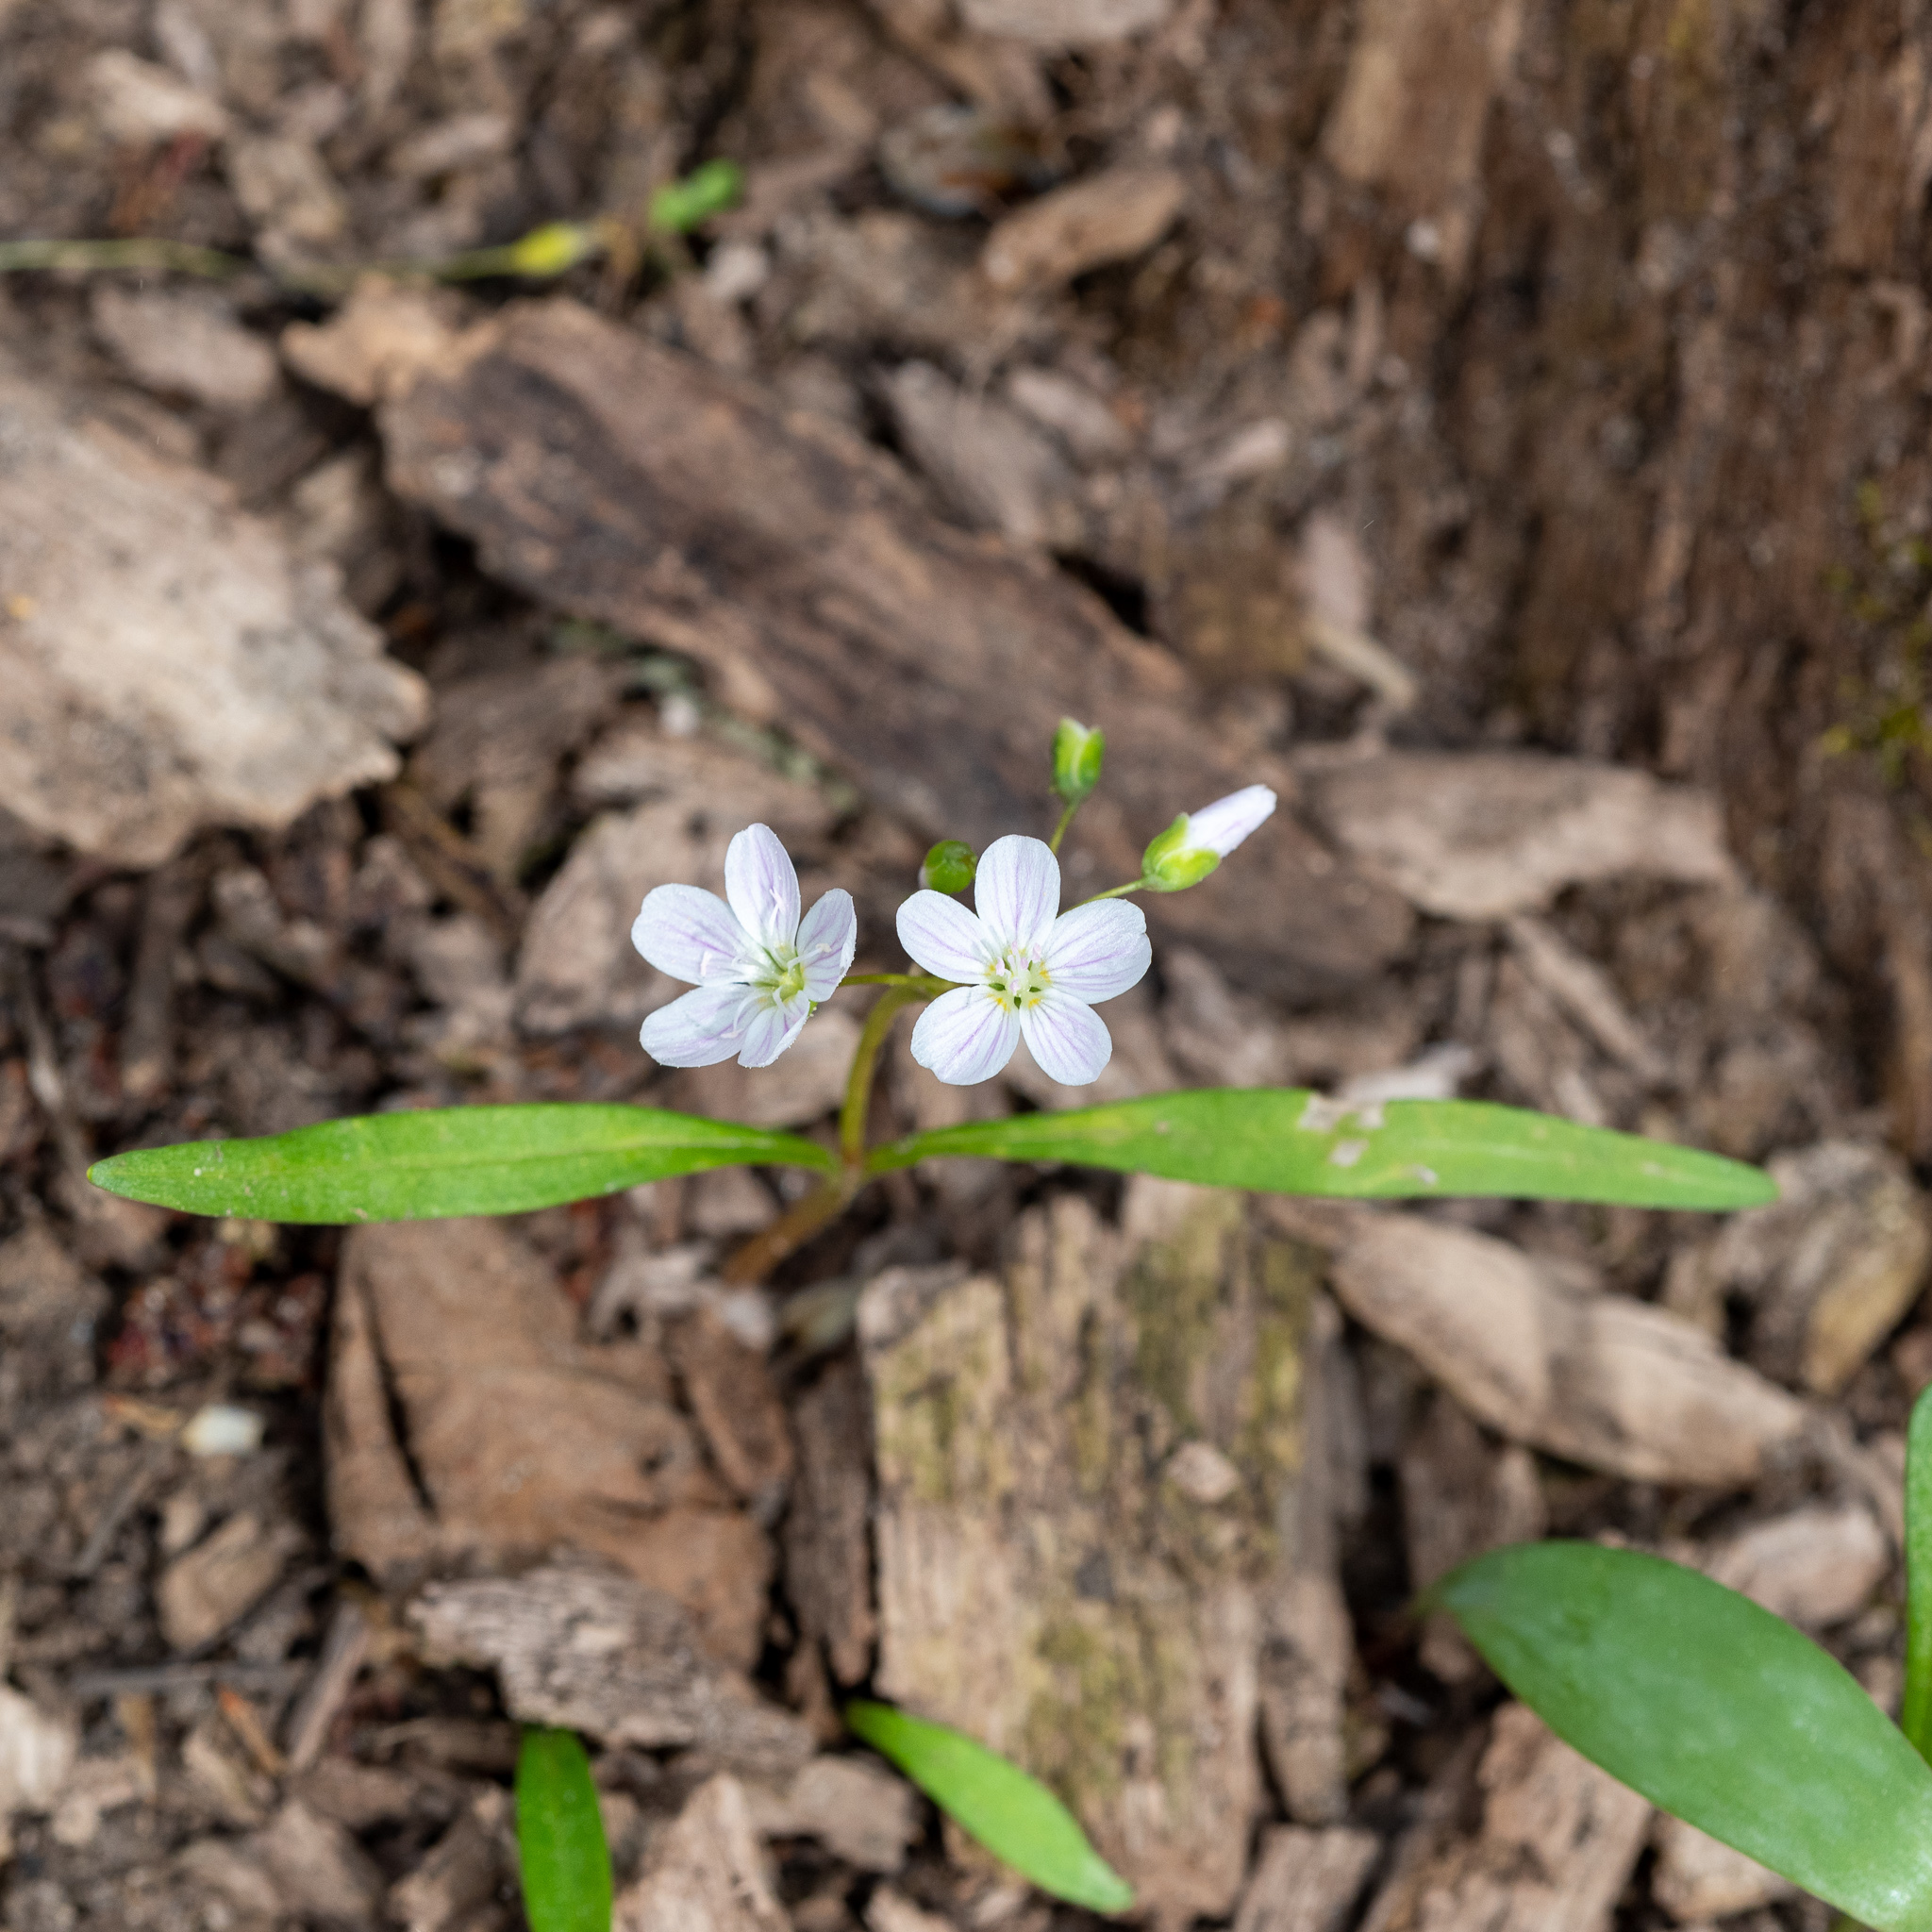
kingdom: Plantae
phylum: Tracheophyta
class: Magnoliopsida
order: Caryophyllales
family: Montiaceae
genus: Claytonia
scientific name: Claytonia virginica
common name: Virginia springbeauty
